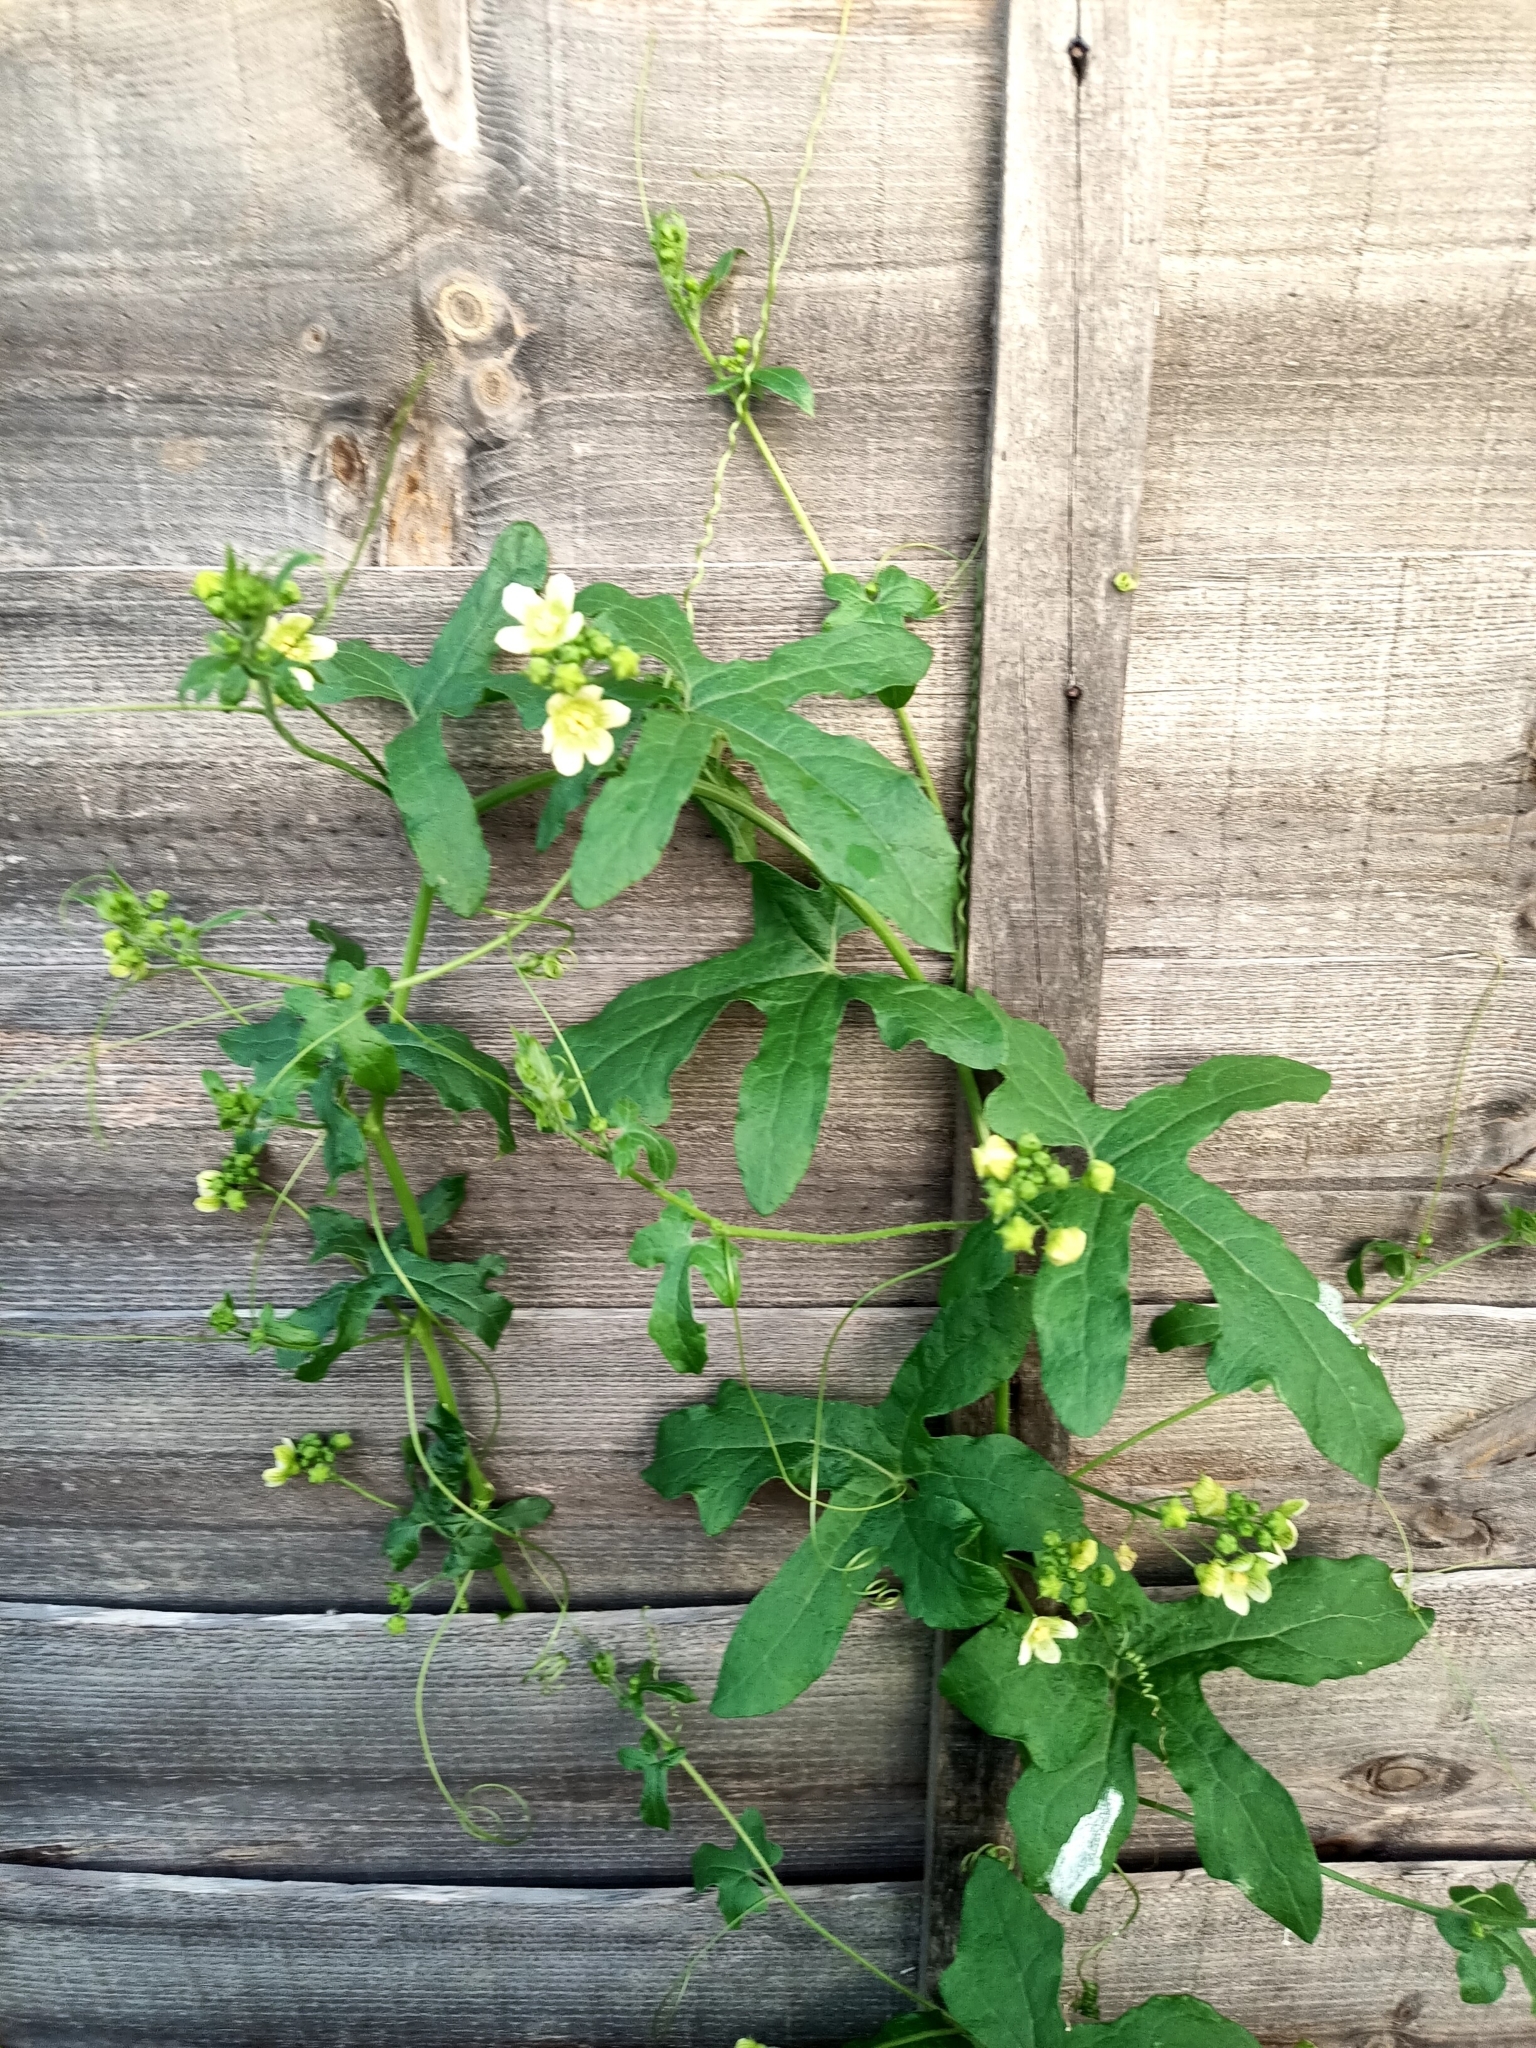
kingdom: Plantae
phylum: Tracheophyta
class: Magnoliopsida
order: Cucurbitales
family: Cucurbitaceae
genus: Bryonia
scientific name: Bryonia dioica
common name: White bryony
